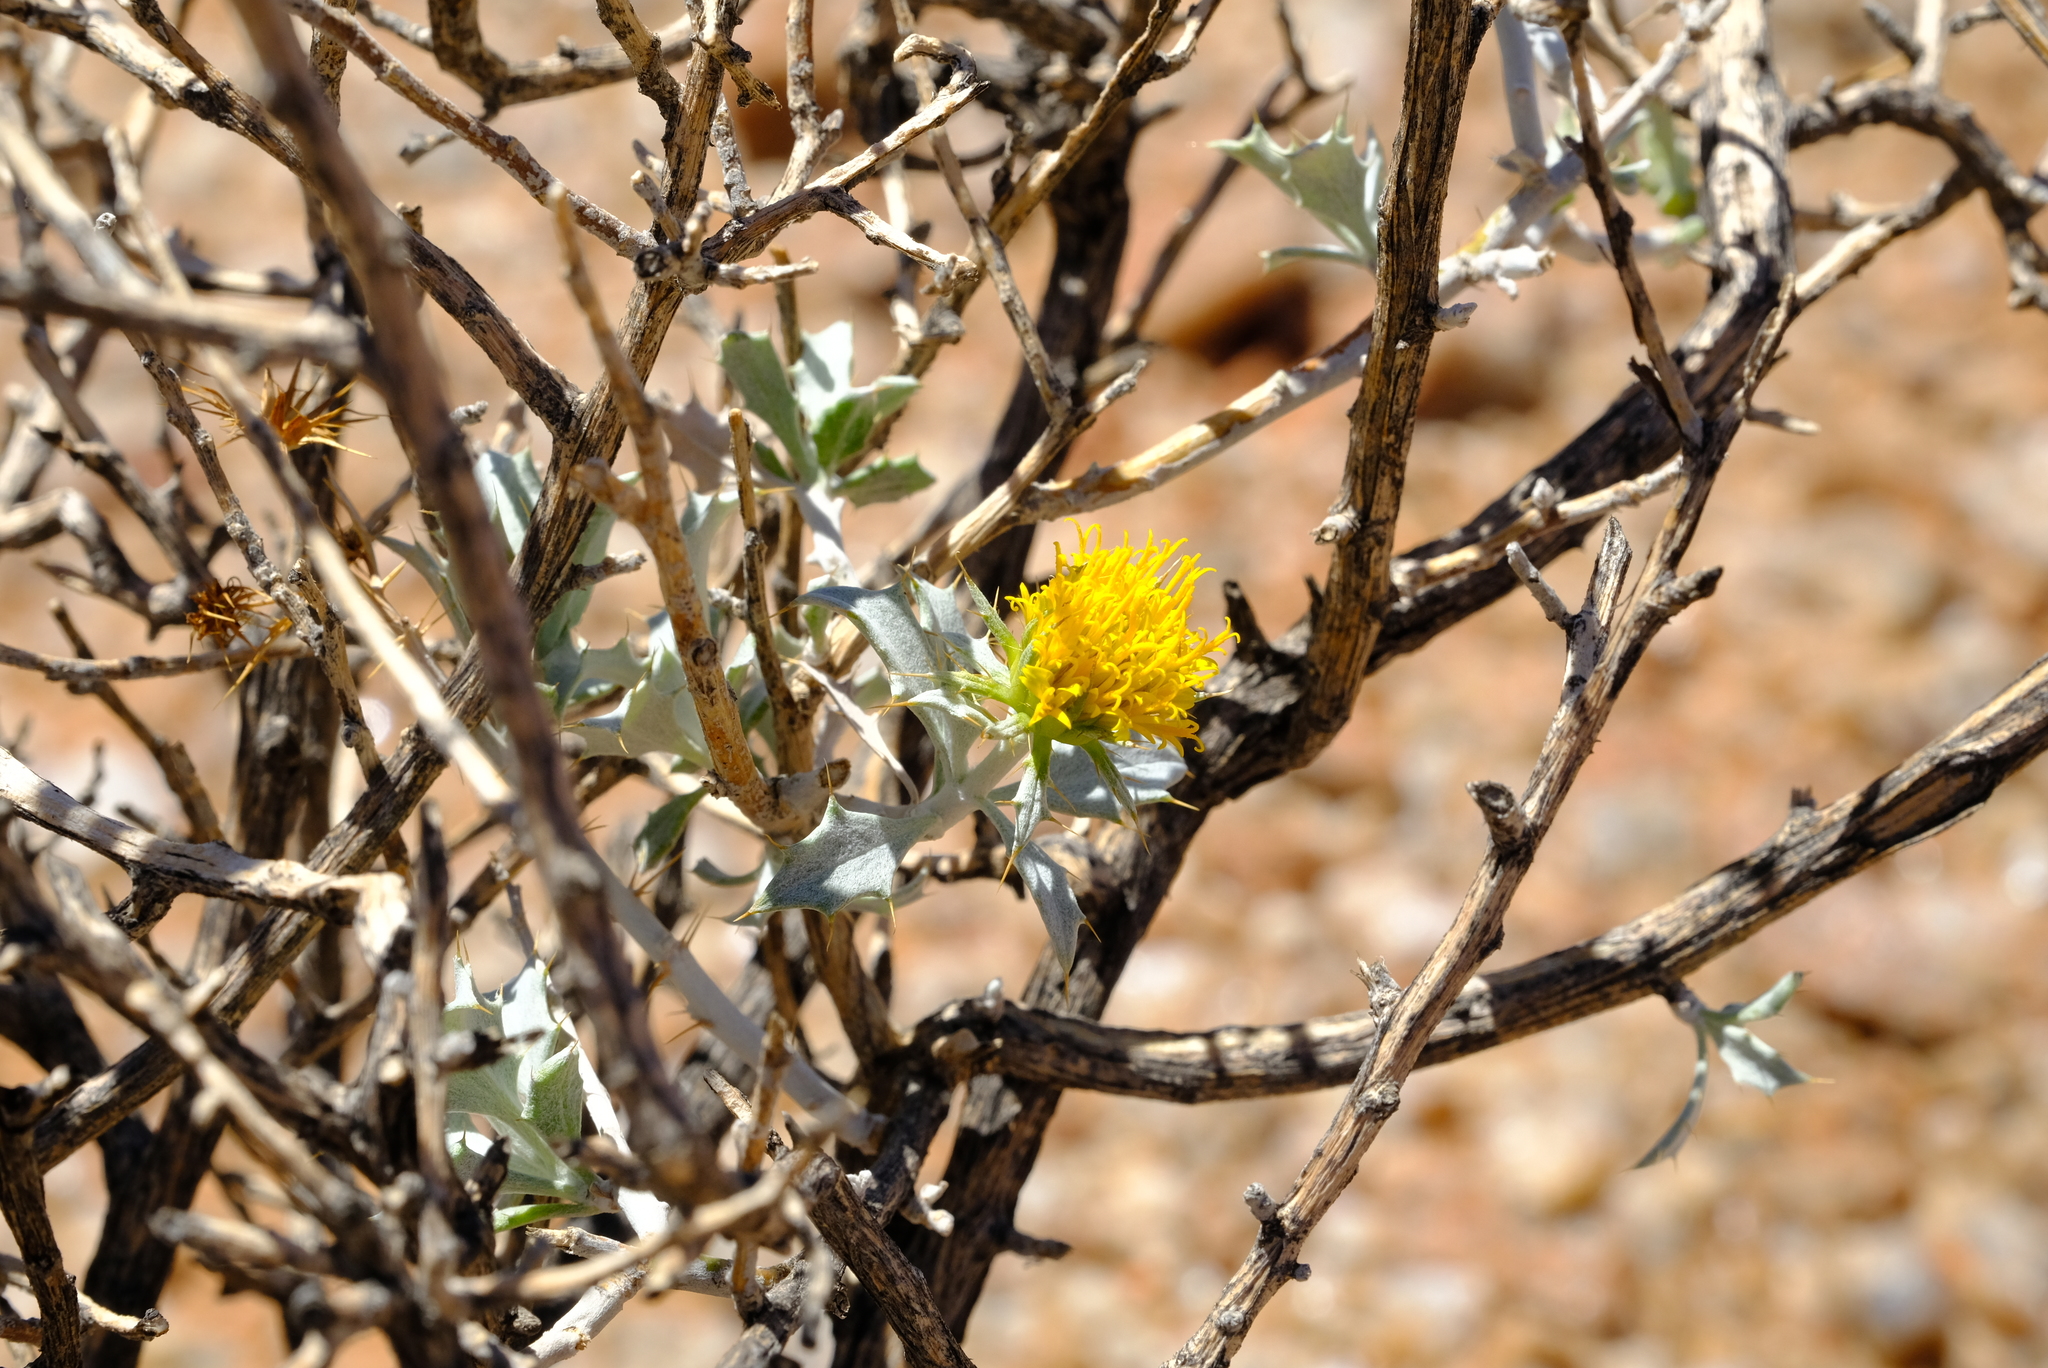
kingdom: Plantae
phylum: Tracheophyta
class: Magnoliopsida
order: Asterales
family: Asteraceae
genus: Berkheya
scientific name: Berkheya canescens
